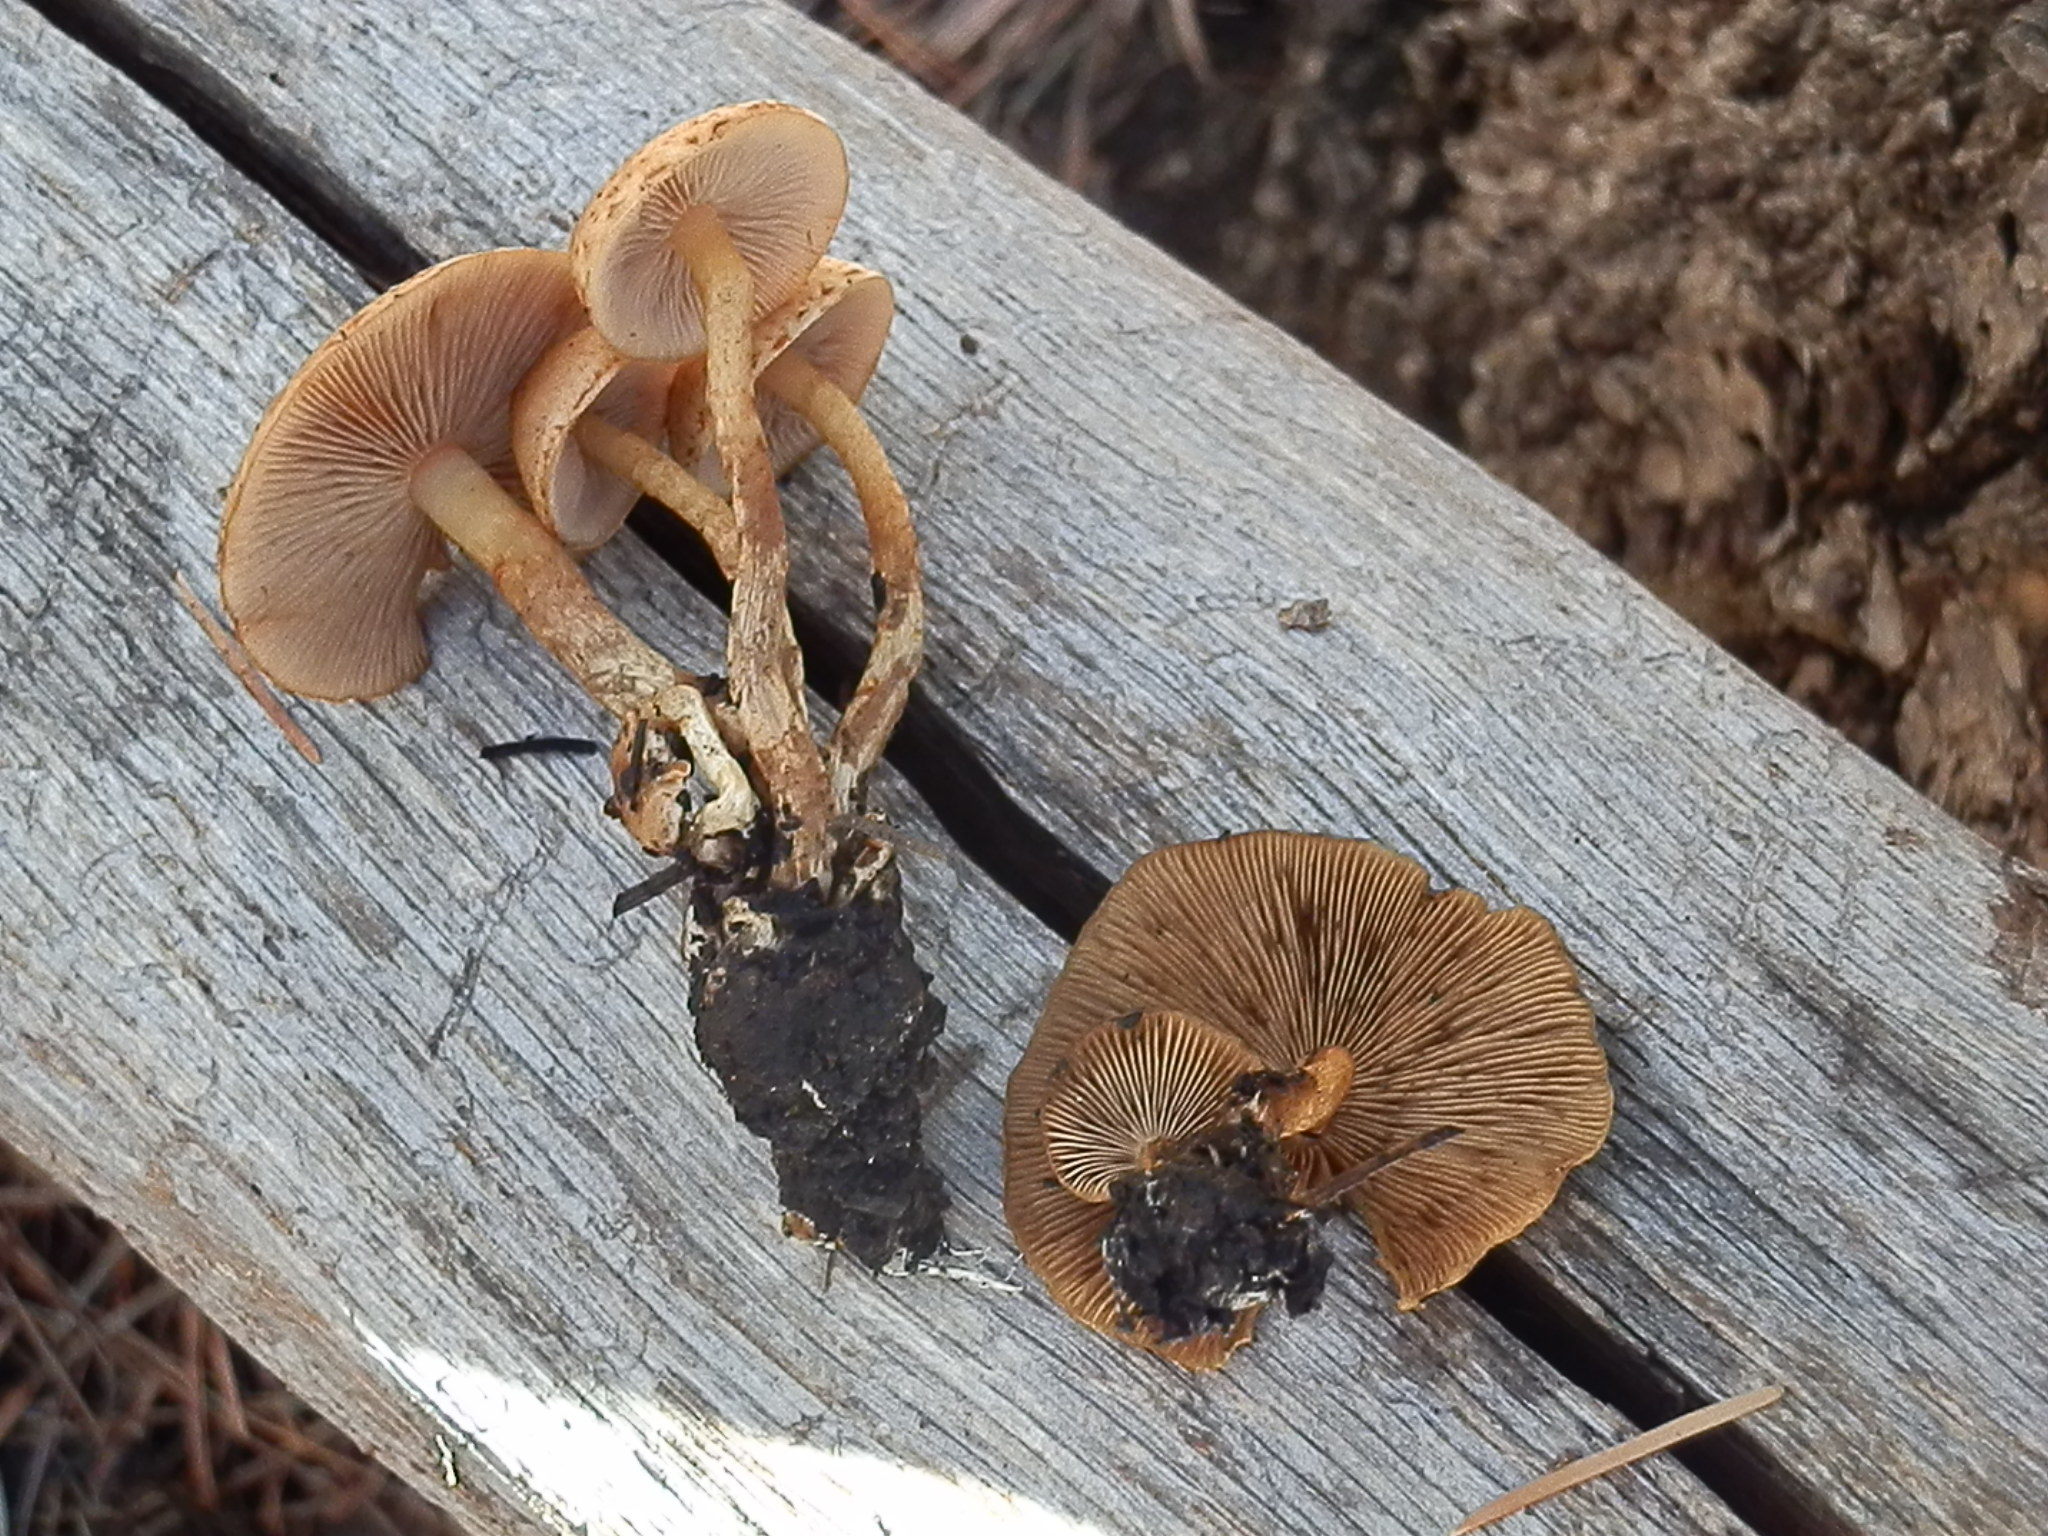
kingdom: Fungi
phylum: Basidiomycota
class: Agaricomycetes
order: Agaricales
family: Strophariaceae
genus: Pholiota
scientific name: Pholiota brunnescens
